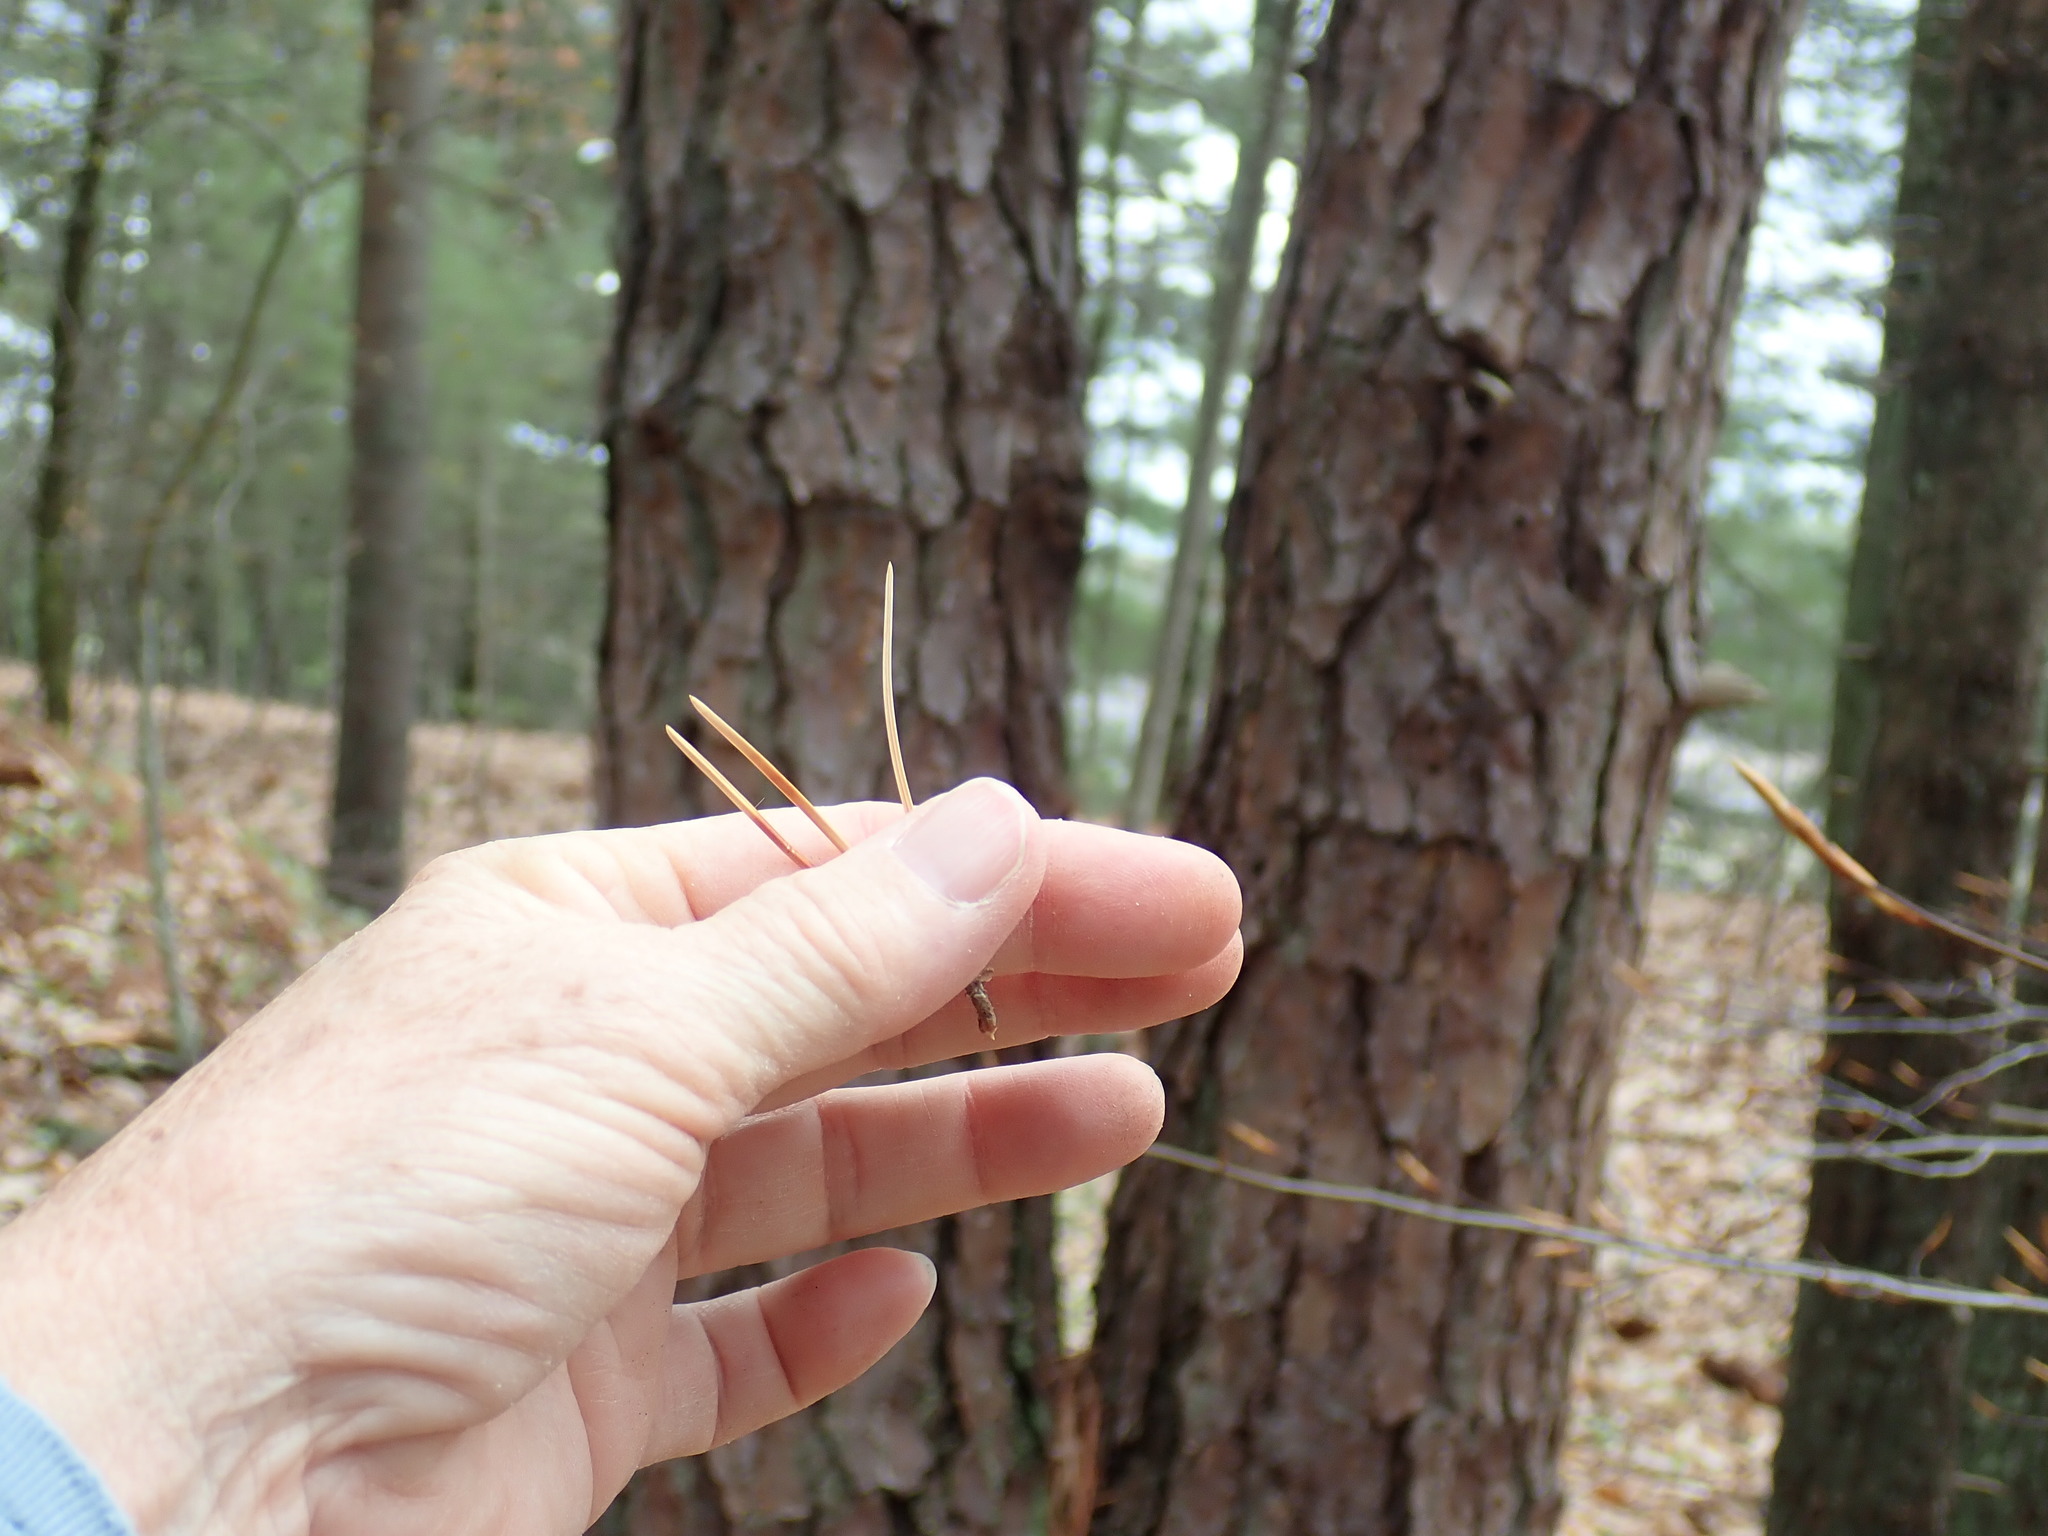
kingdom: Plantae
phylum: Tracheophyta
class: Pinopsida
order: Pinales
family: Pinaceae
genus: Pinus
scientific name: Pinus rigida
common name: Pitch pine
